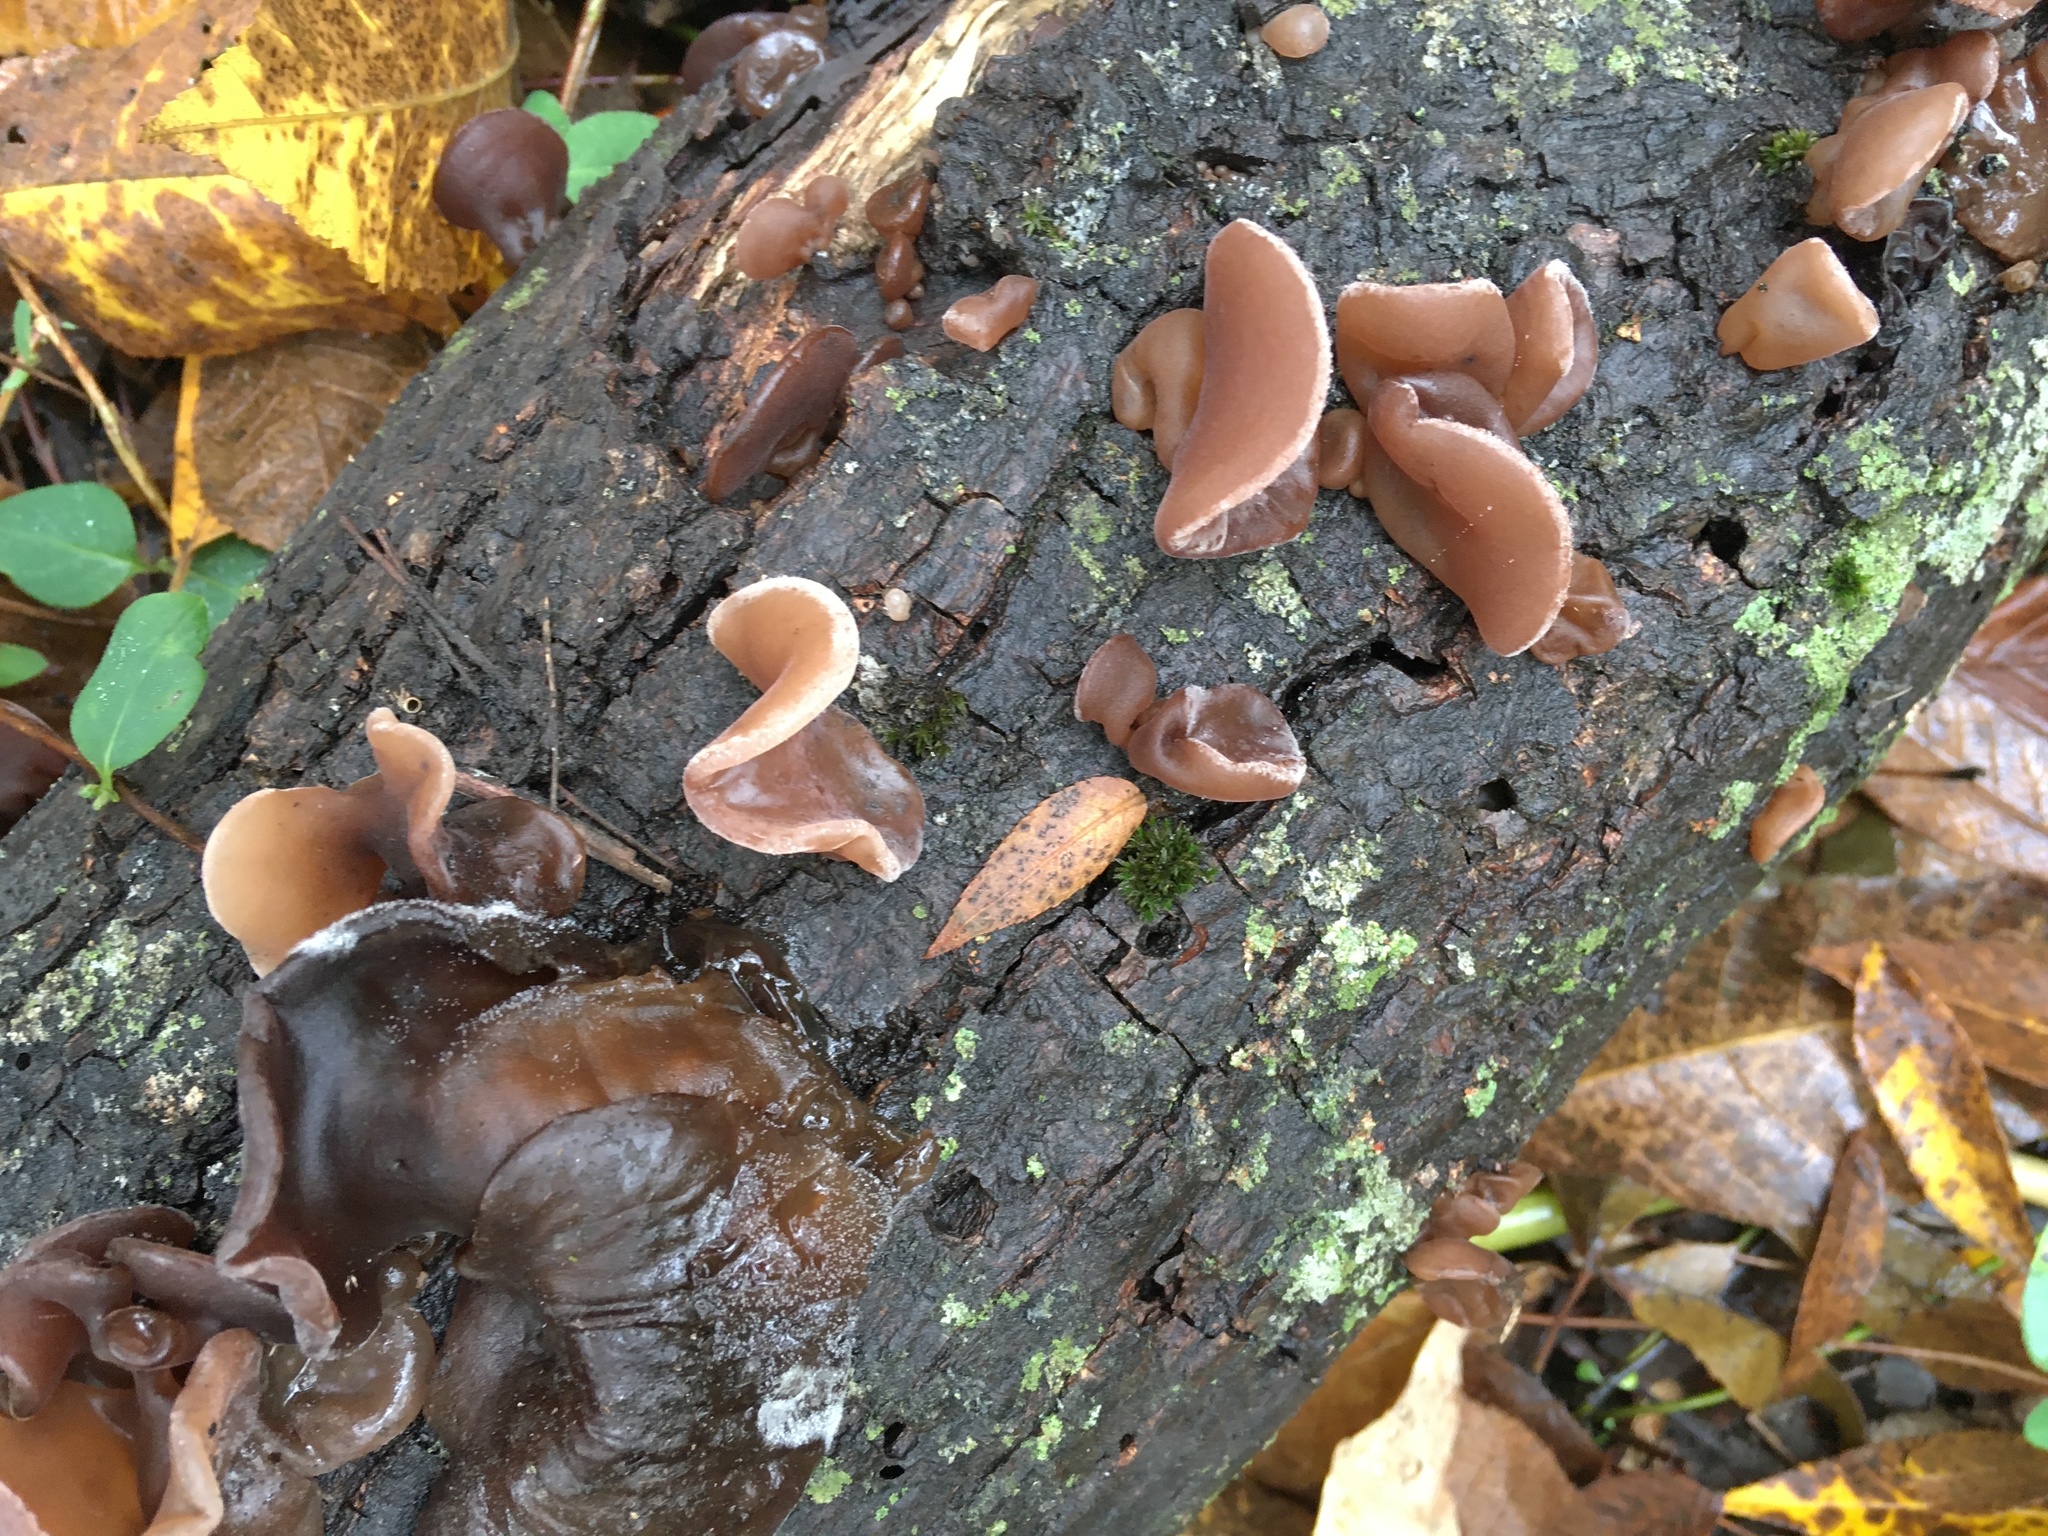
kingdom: Fungi
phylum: Basidiomycota
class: Agaricomycetes
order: Auriculariales
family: Auriculariaceae
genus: Auricularia
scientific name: Auricularia angiospermarum
